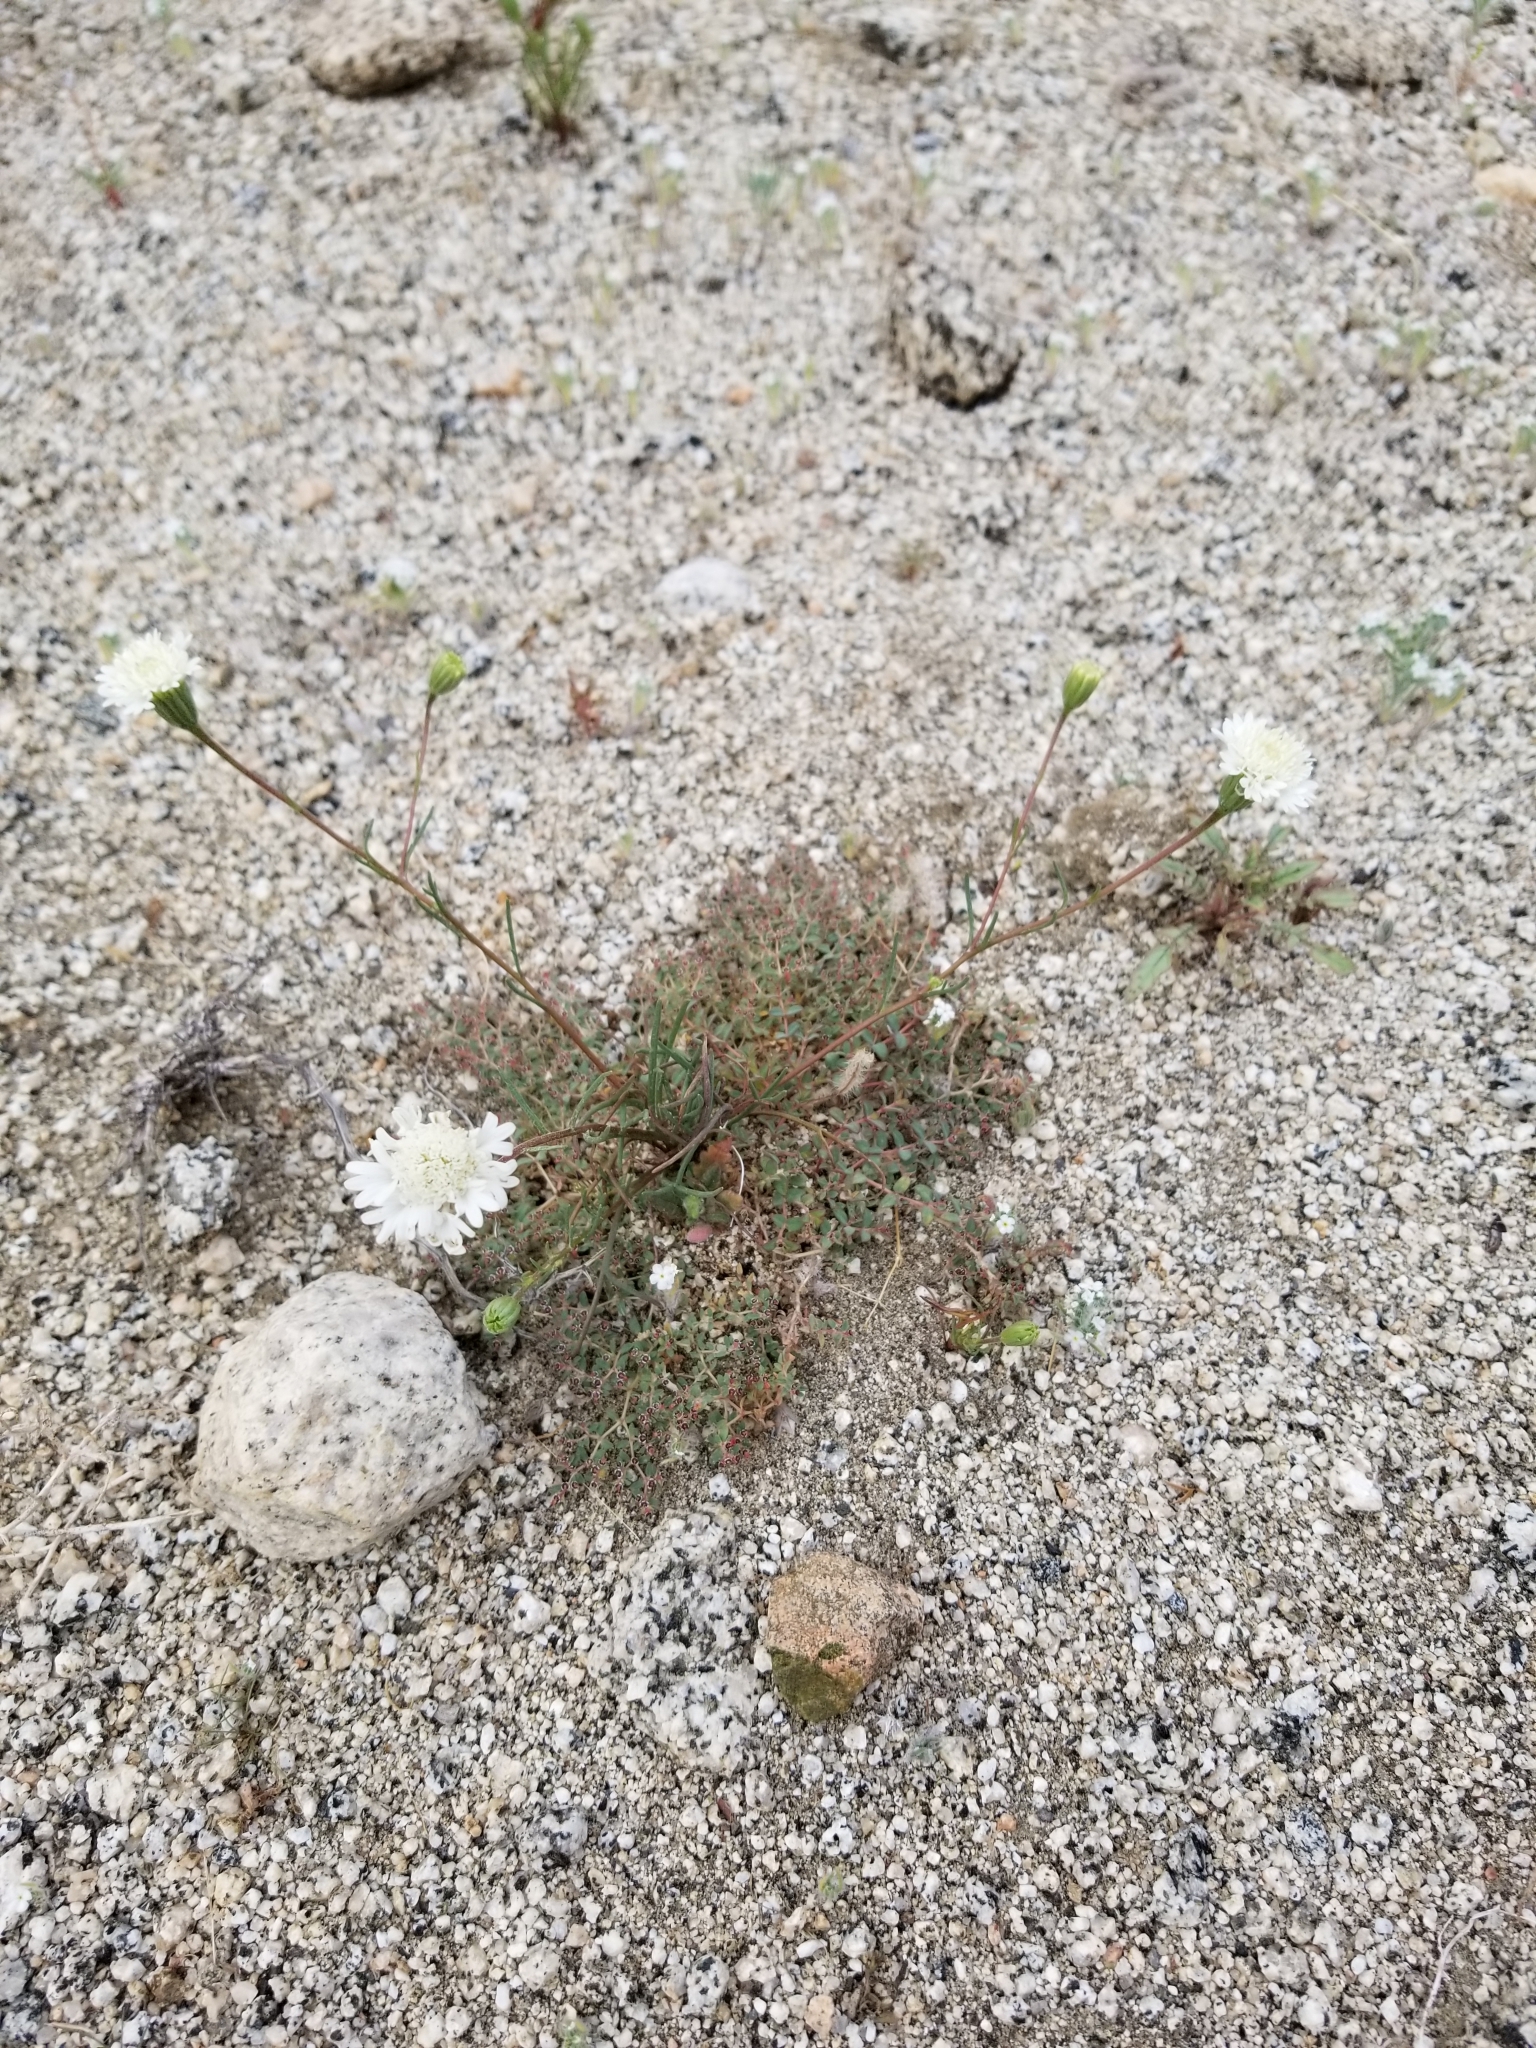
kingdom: Plantae
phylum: Tracheophyta
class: Magnoliopsida
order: Malpighiales
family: Euphorbiaceae
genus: Euphorbia
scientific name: Euphorbia polycarpa
